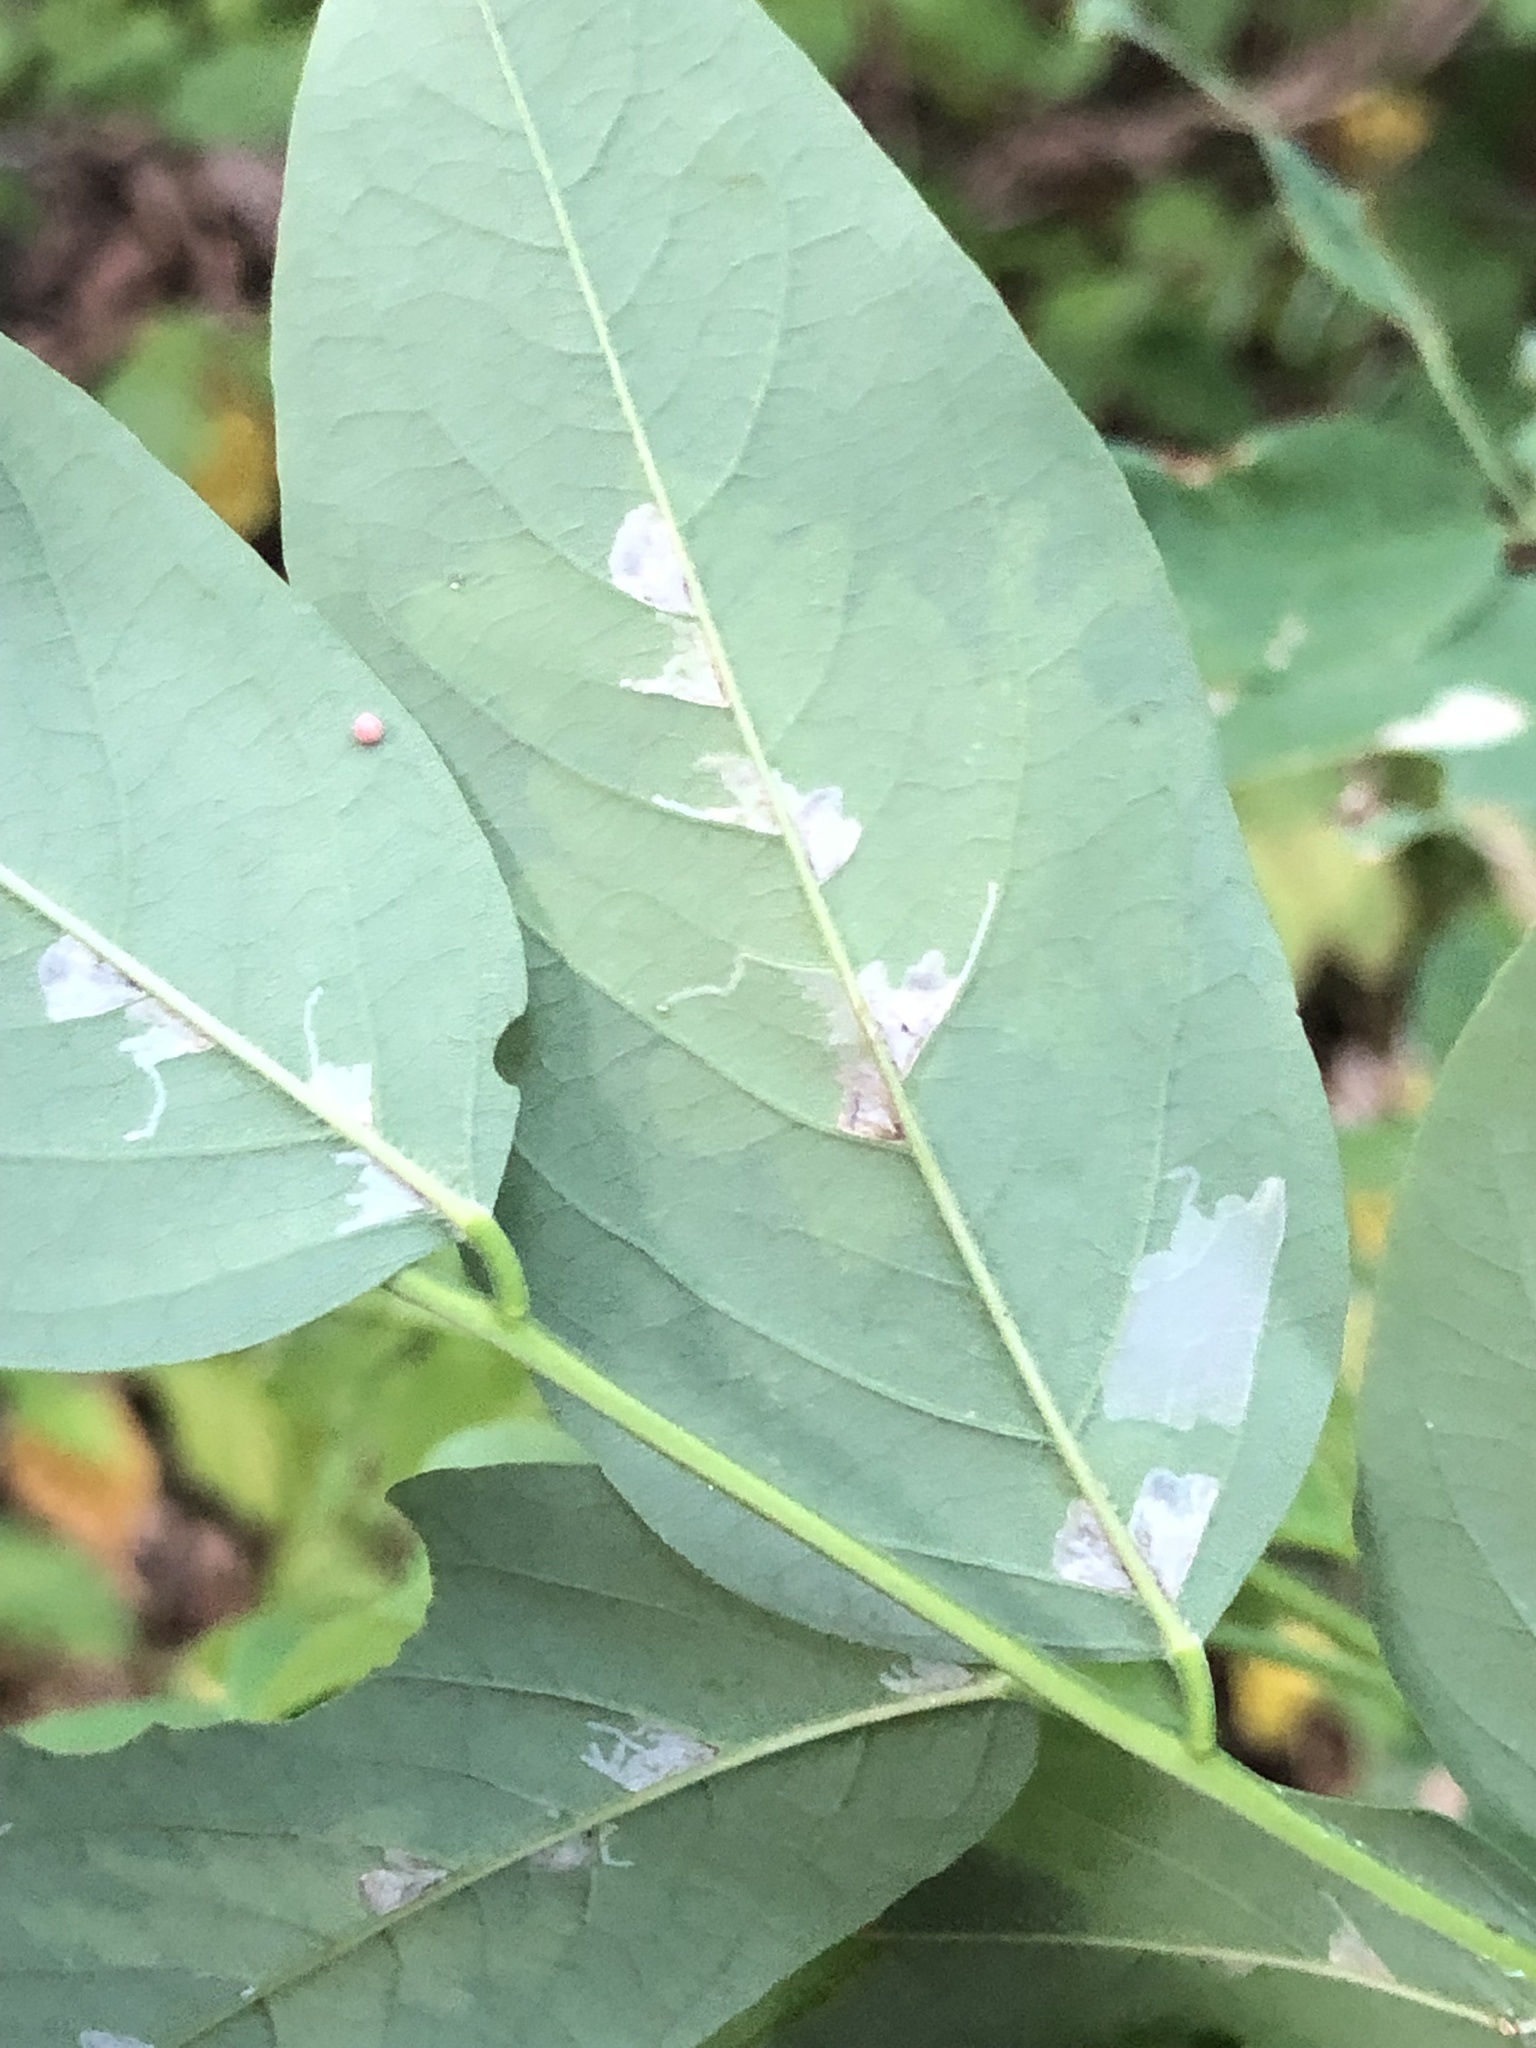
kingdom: Animalia
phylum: Arthropoda
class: Insecta
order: Lepidoptera
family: Gracillariidae
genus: Parectopa
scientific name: Parectopa robiniella
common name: Locust digitate leafminer
